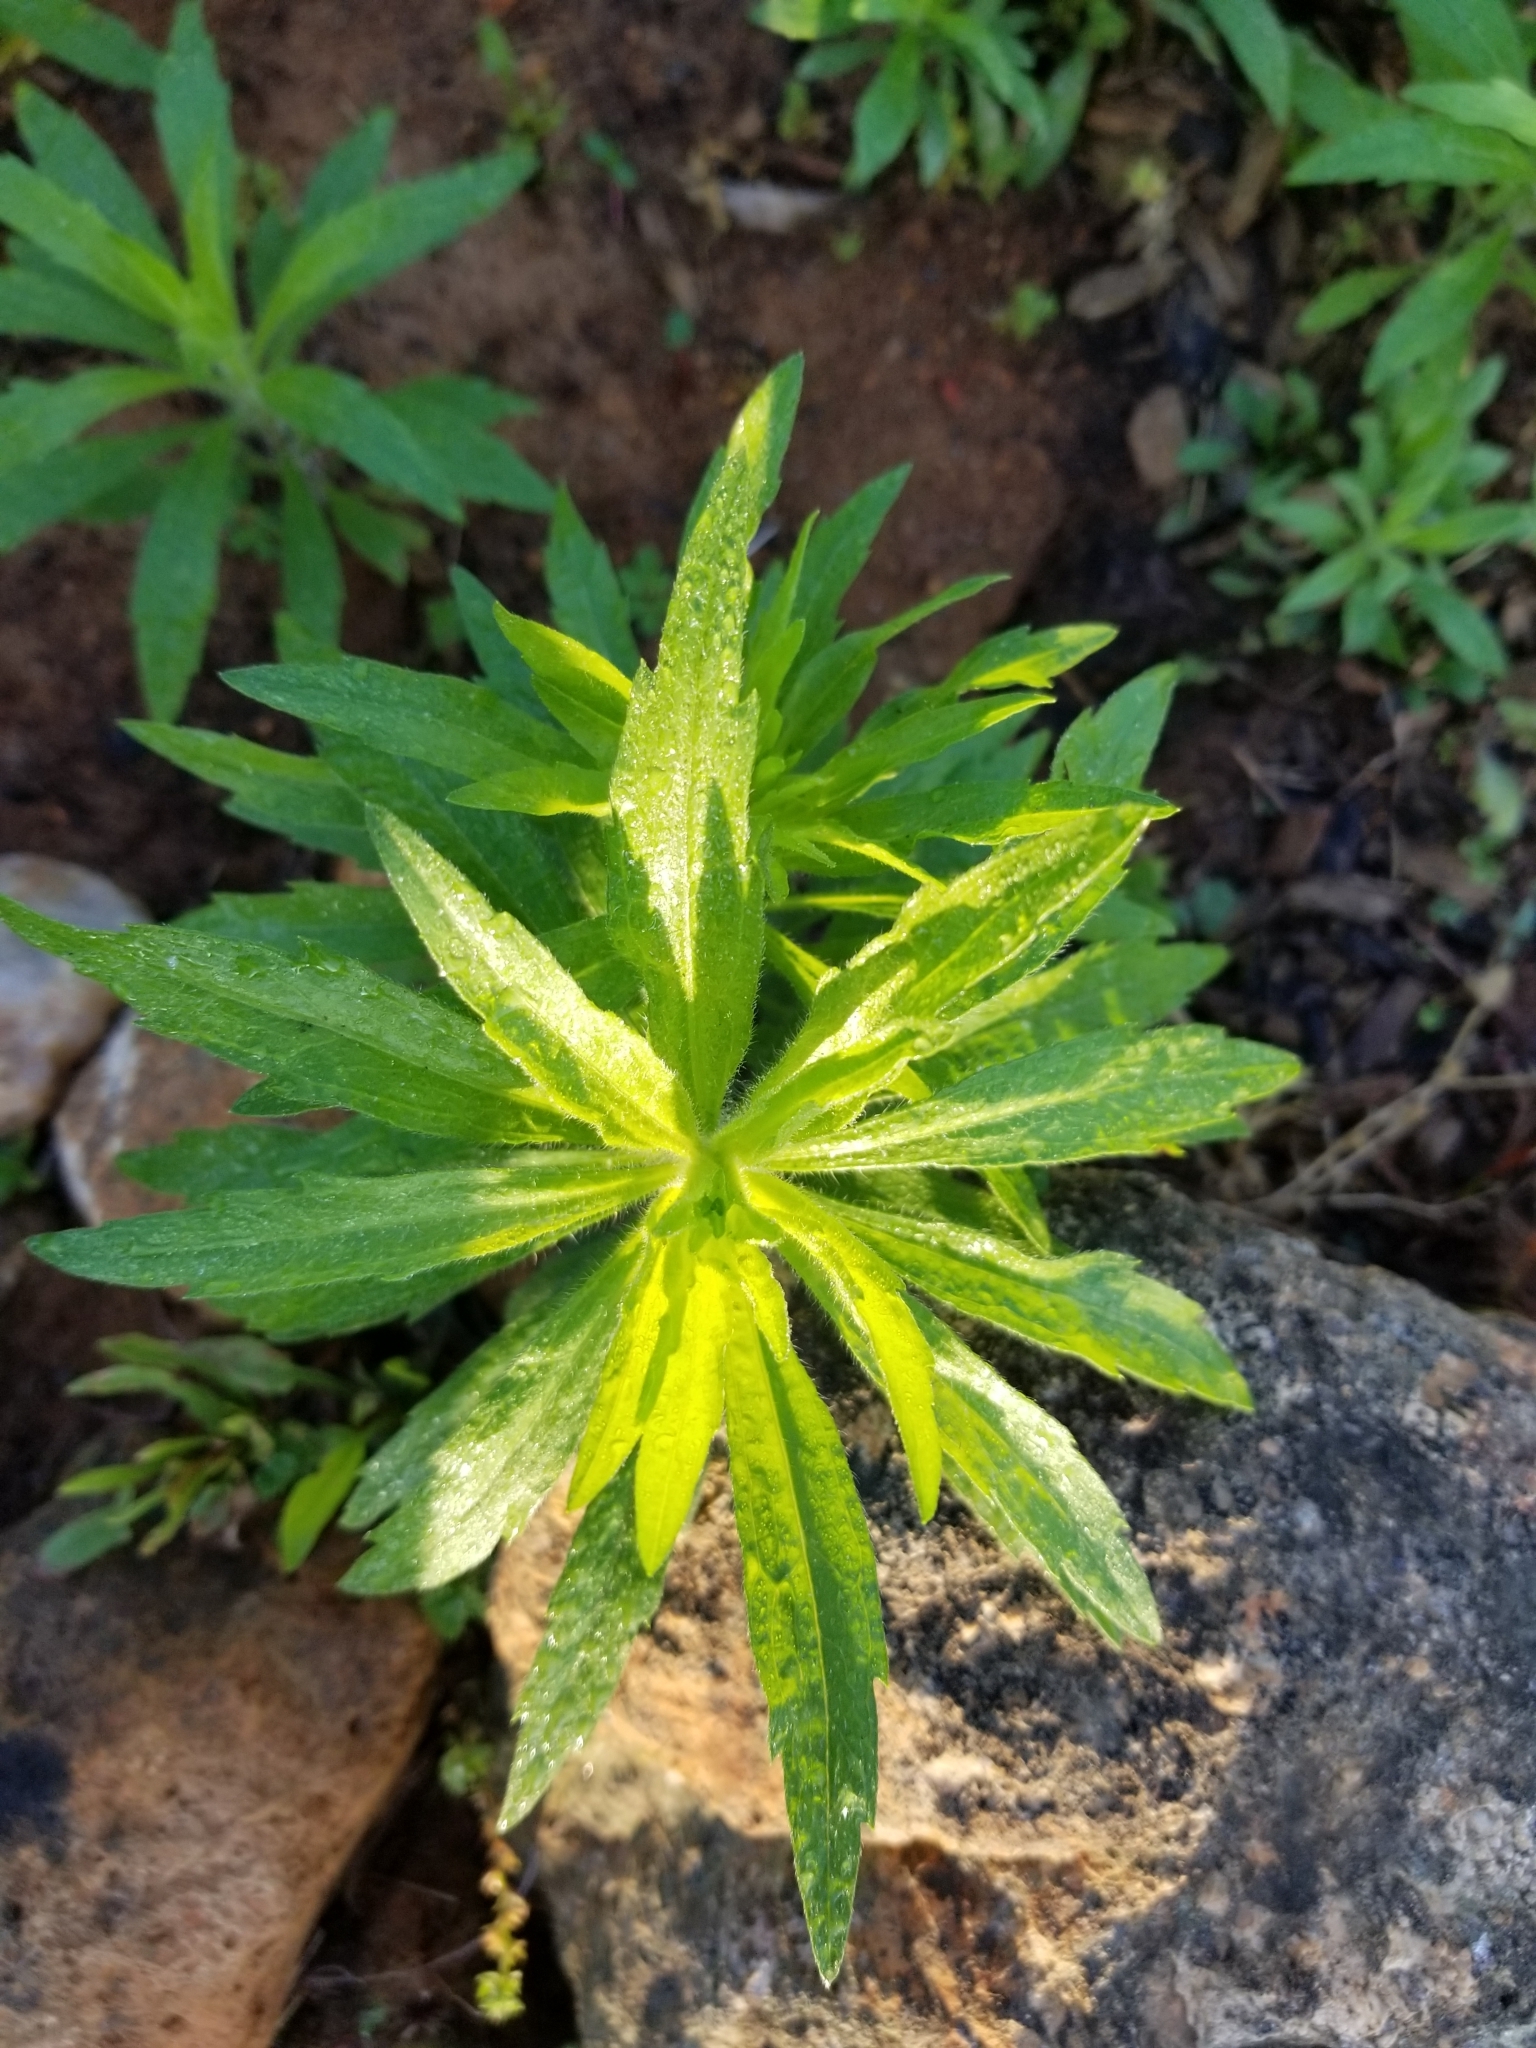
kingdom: Plantae
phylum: Tracheophyta
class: Magnoliopsida
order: Asterales
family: Asteraceae
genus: Erigeron
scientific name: Erigeron canadensis
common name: Canadian fleabane
